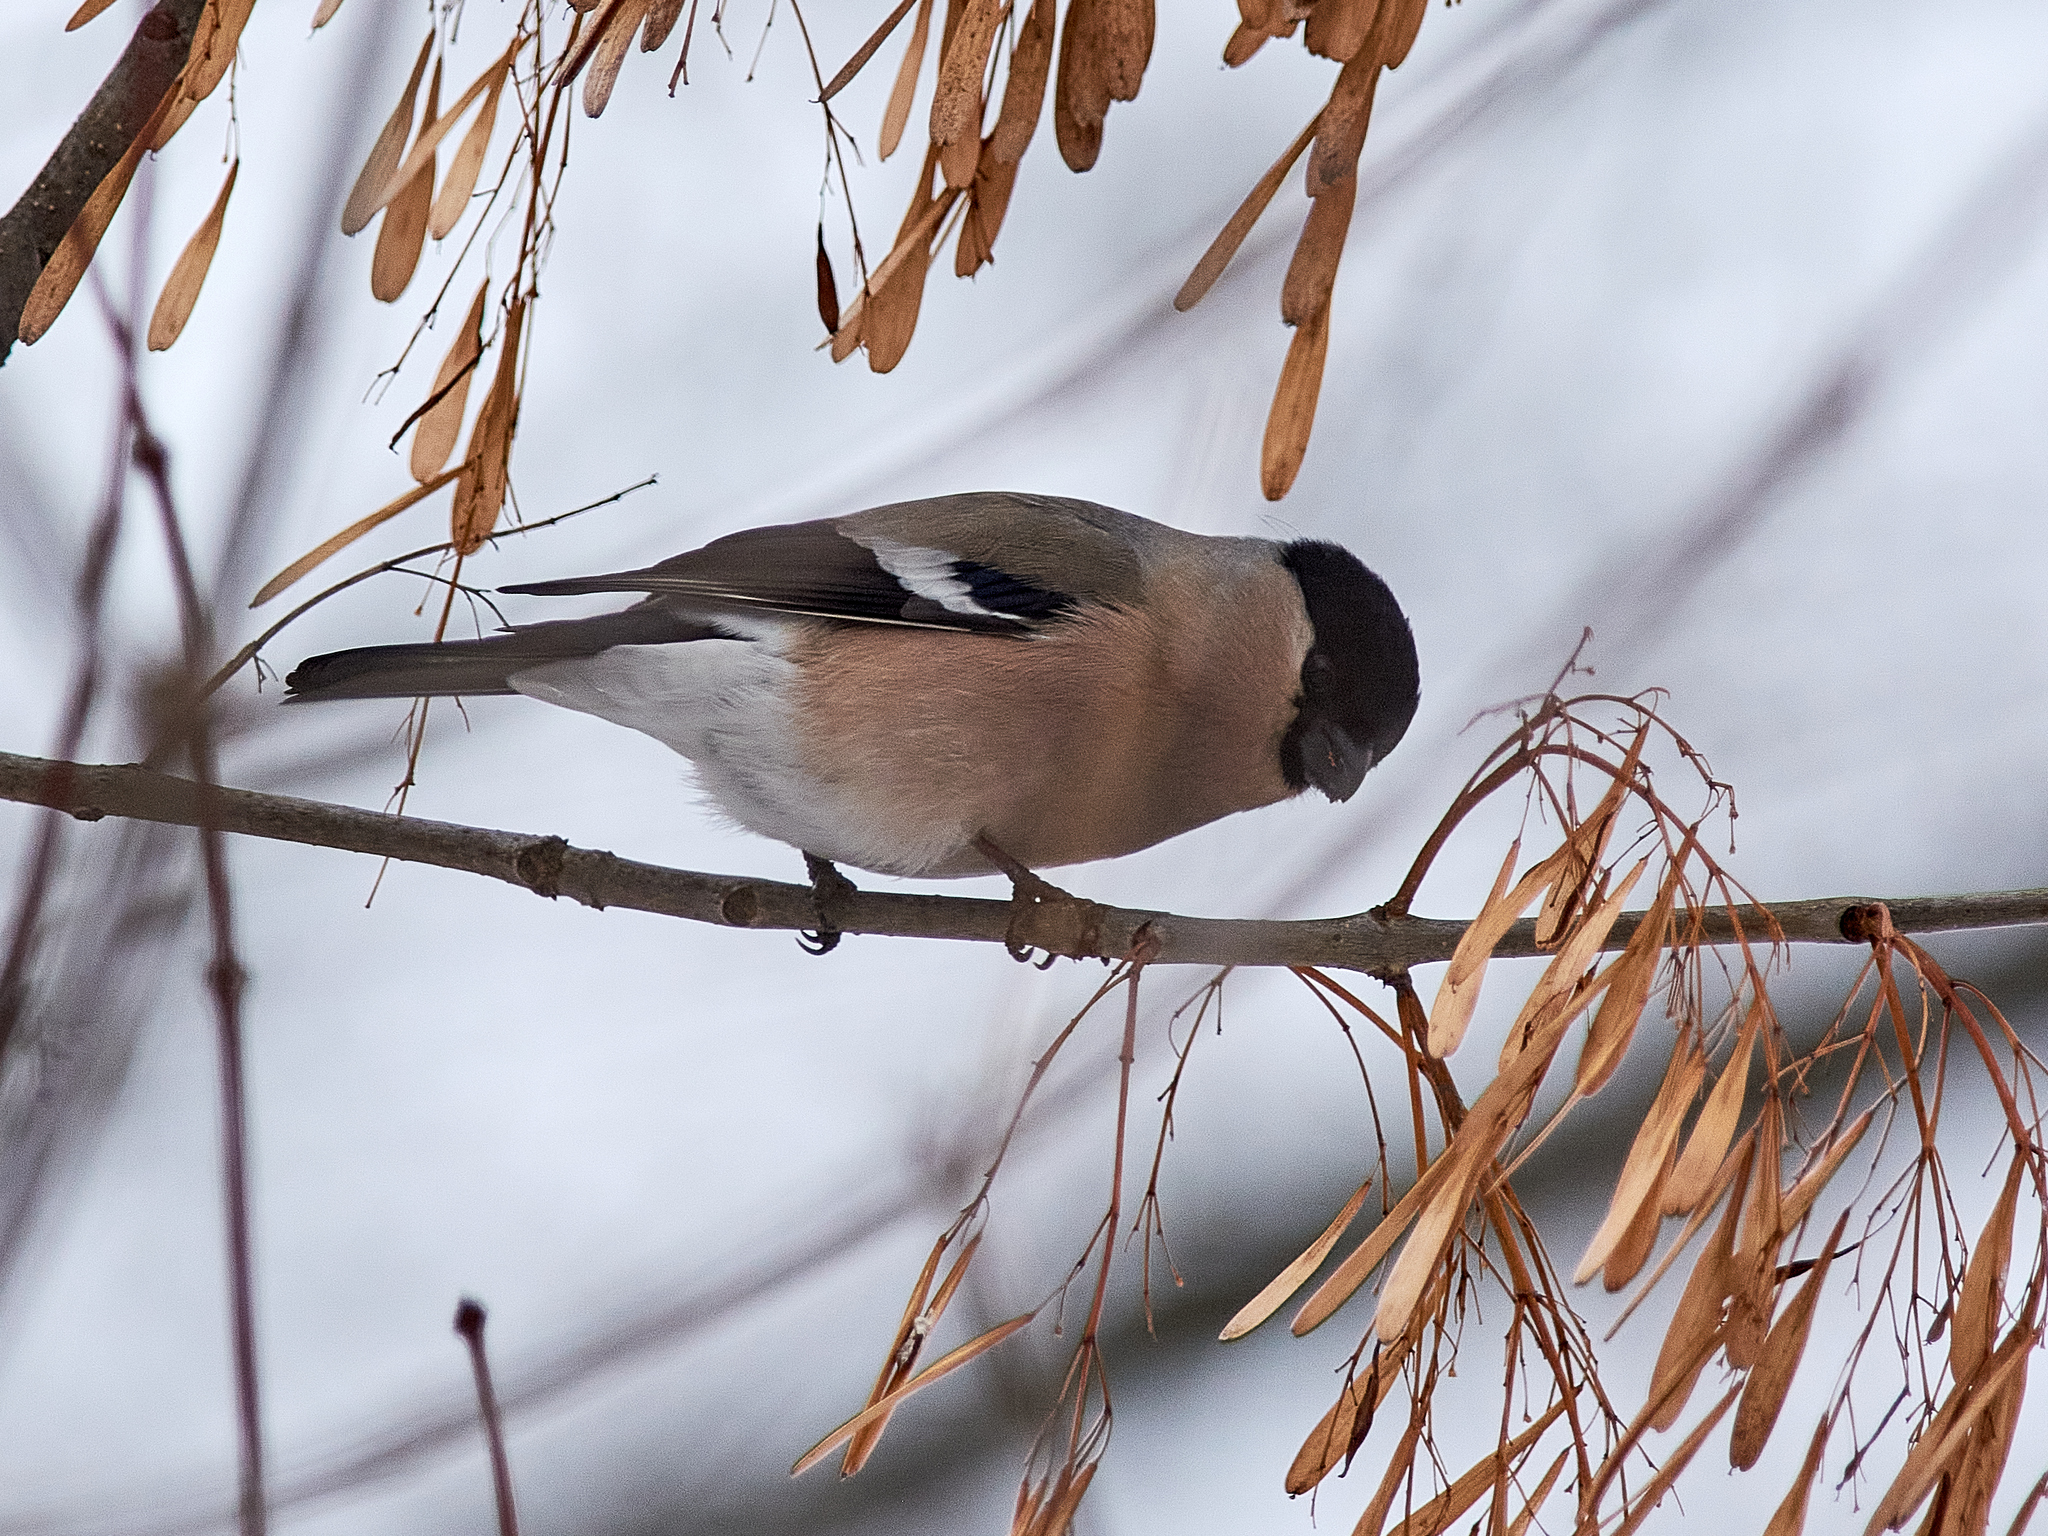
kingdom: Animalia
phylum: Chordata
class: Aves
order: Passeriformes
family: Fringillidae
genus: Pyrrhula
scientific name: Pyrrhula pyrrhula
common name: Eurasian bullfinch
